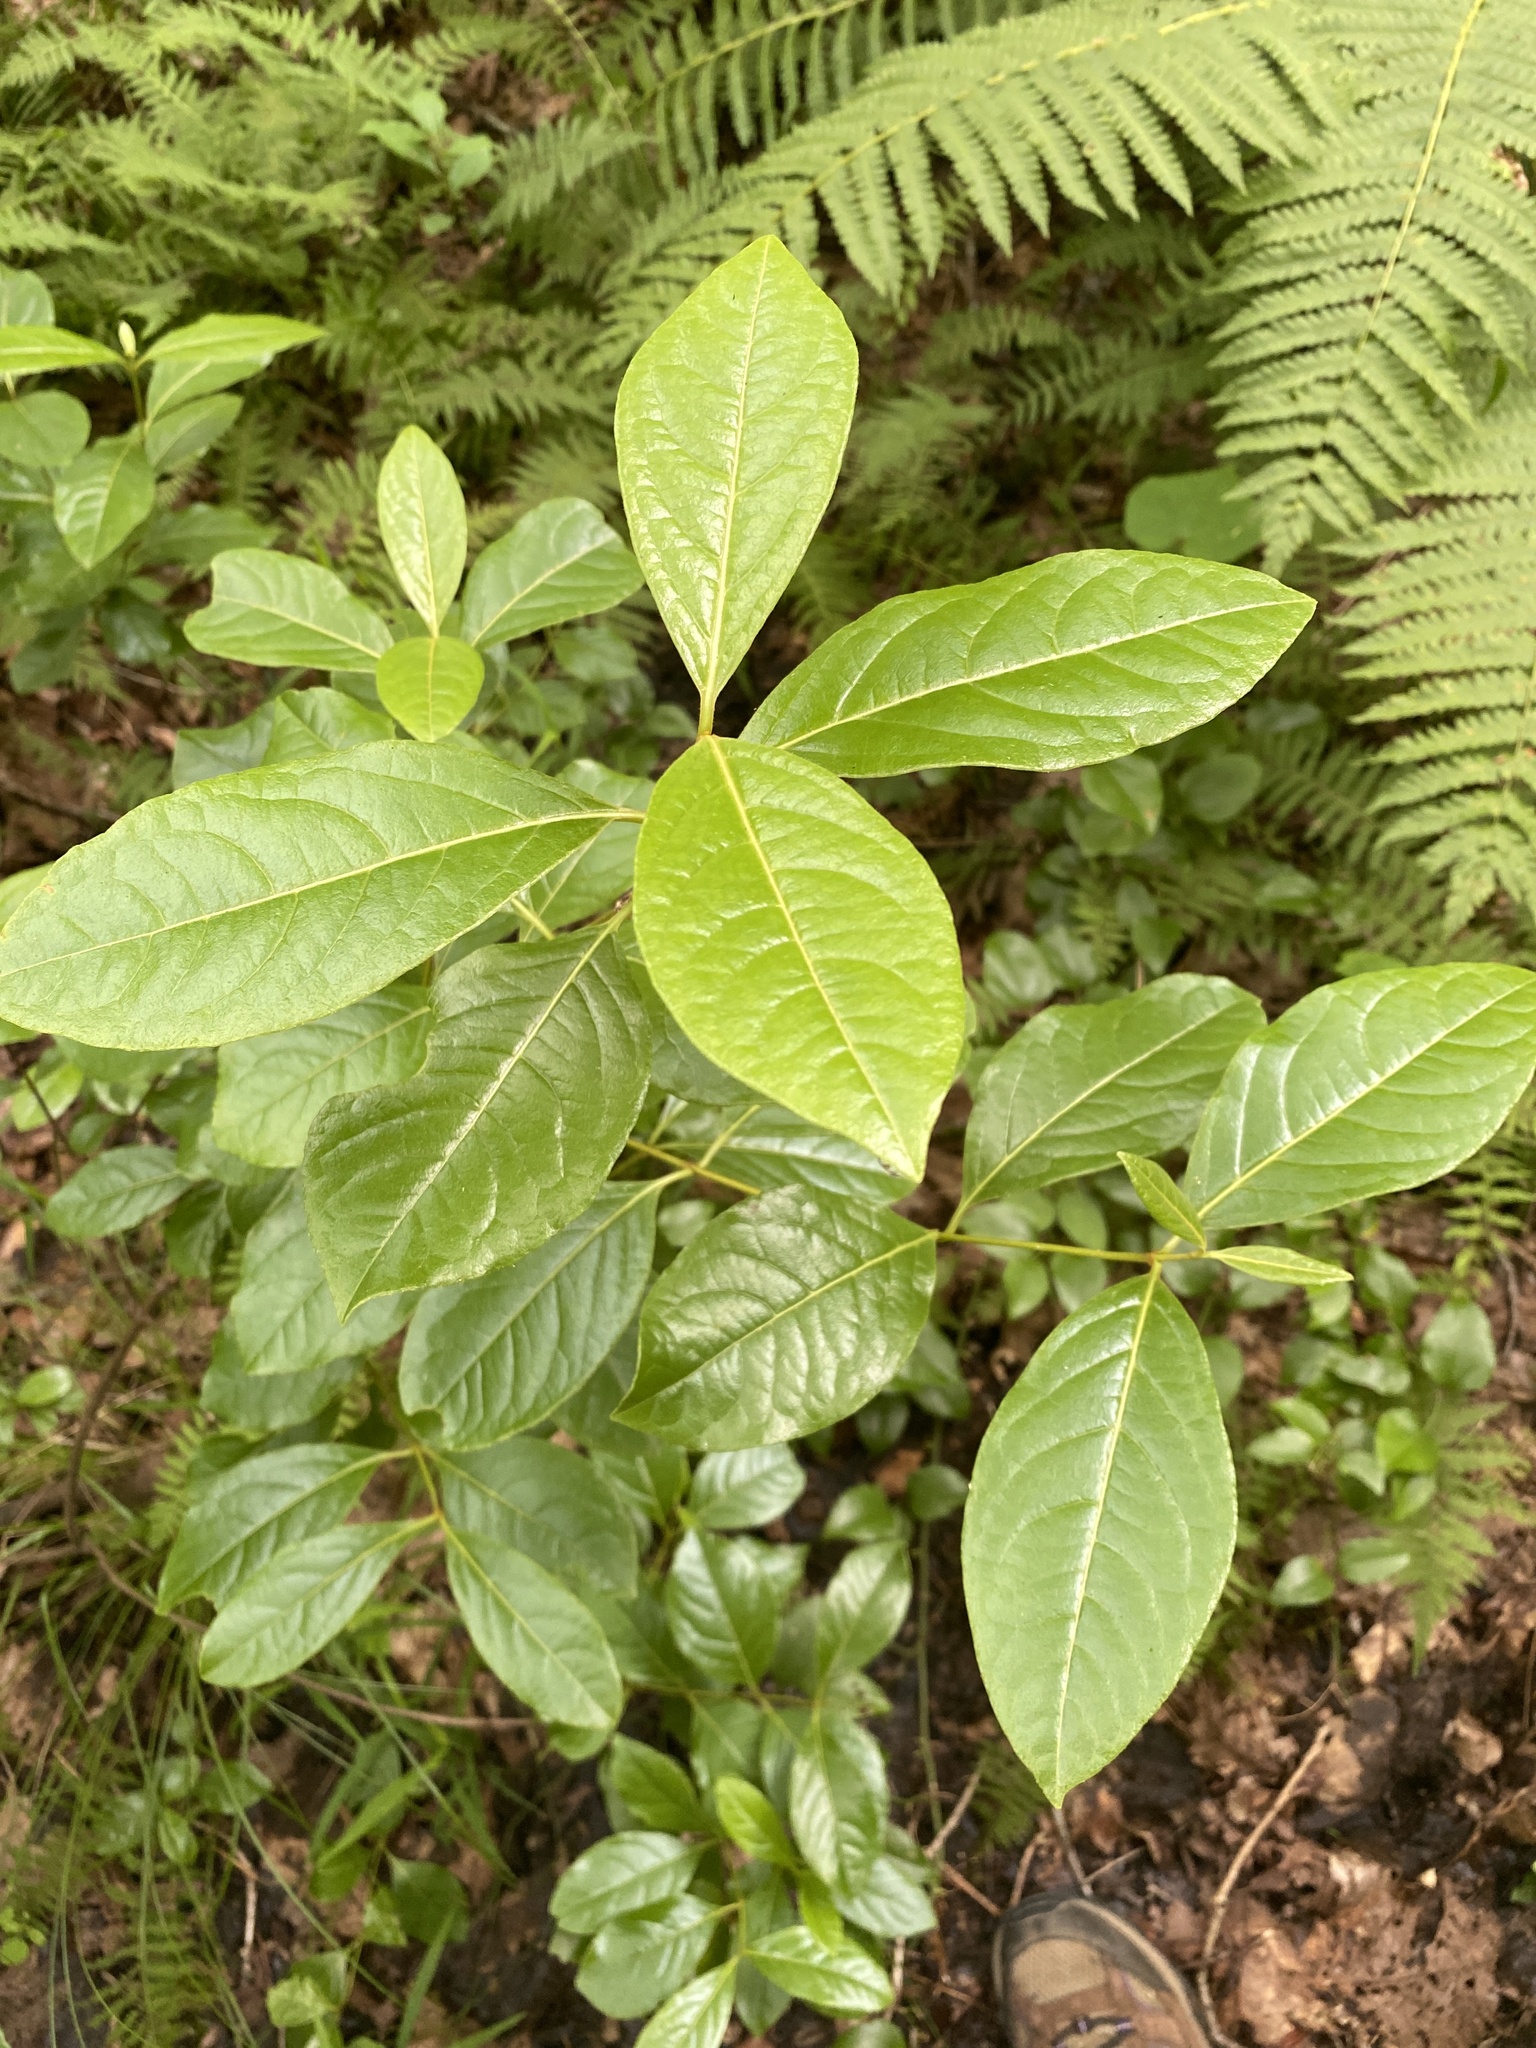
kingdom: Plantae
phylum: Tracheophyta
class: Magnoliopsida
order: Dipsacales
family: Viburnaceae
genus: Viburnum
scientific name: Viburnum nudum
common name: Possum haw
